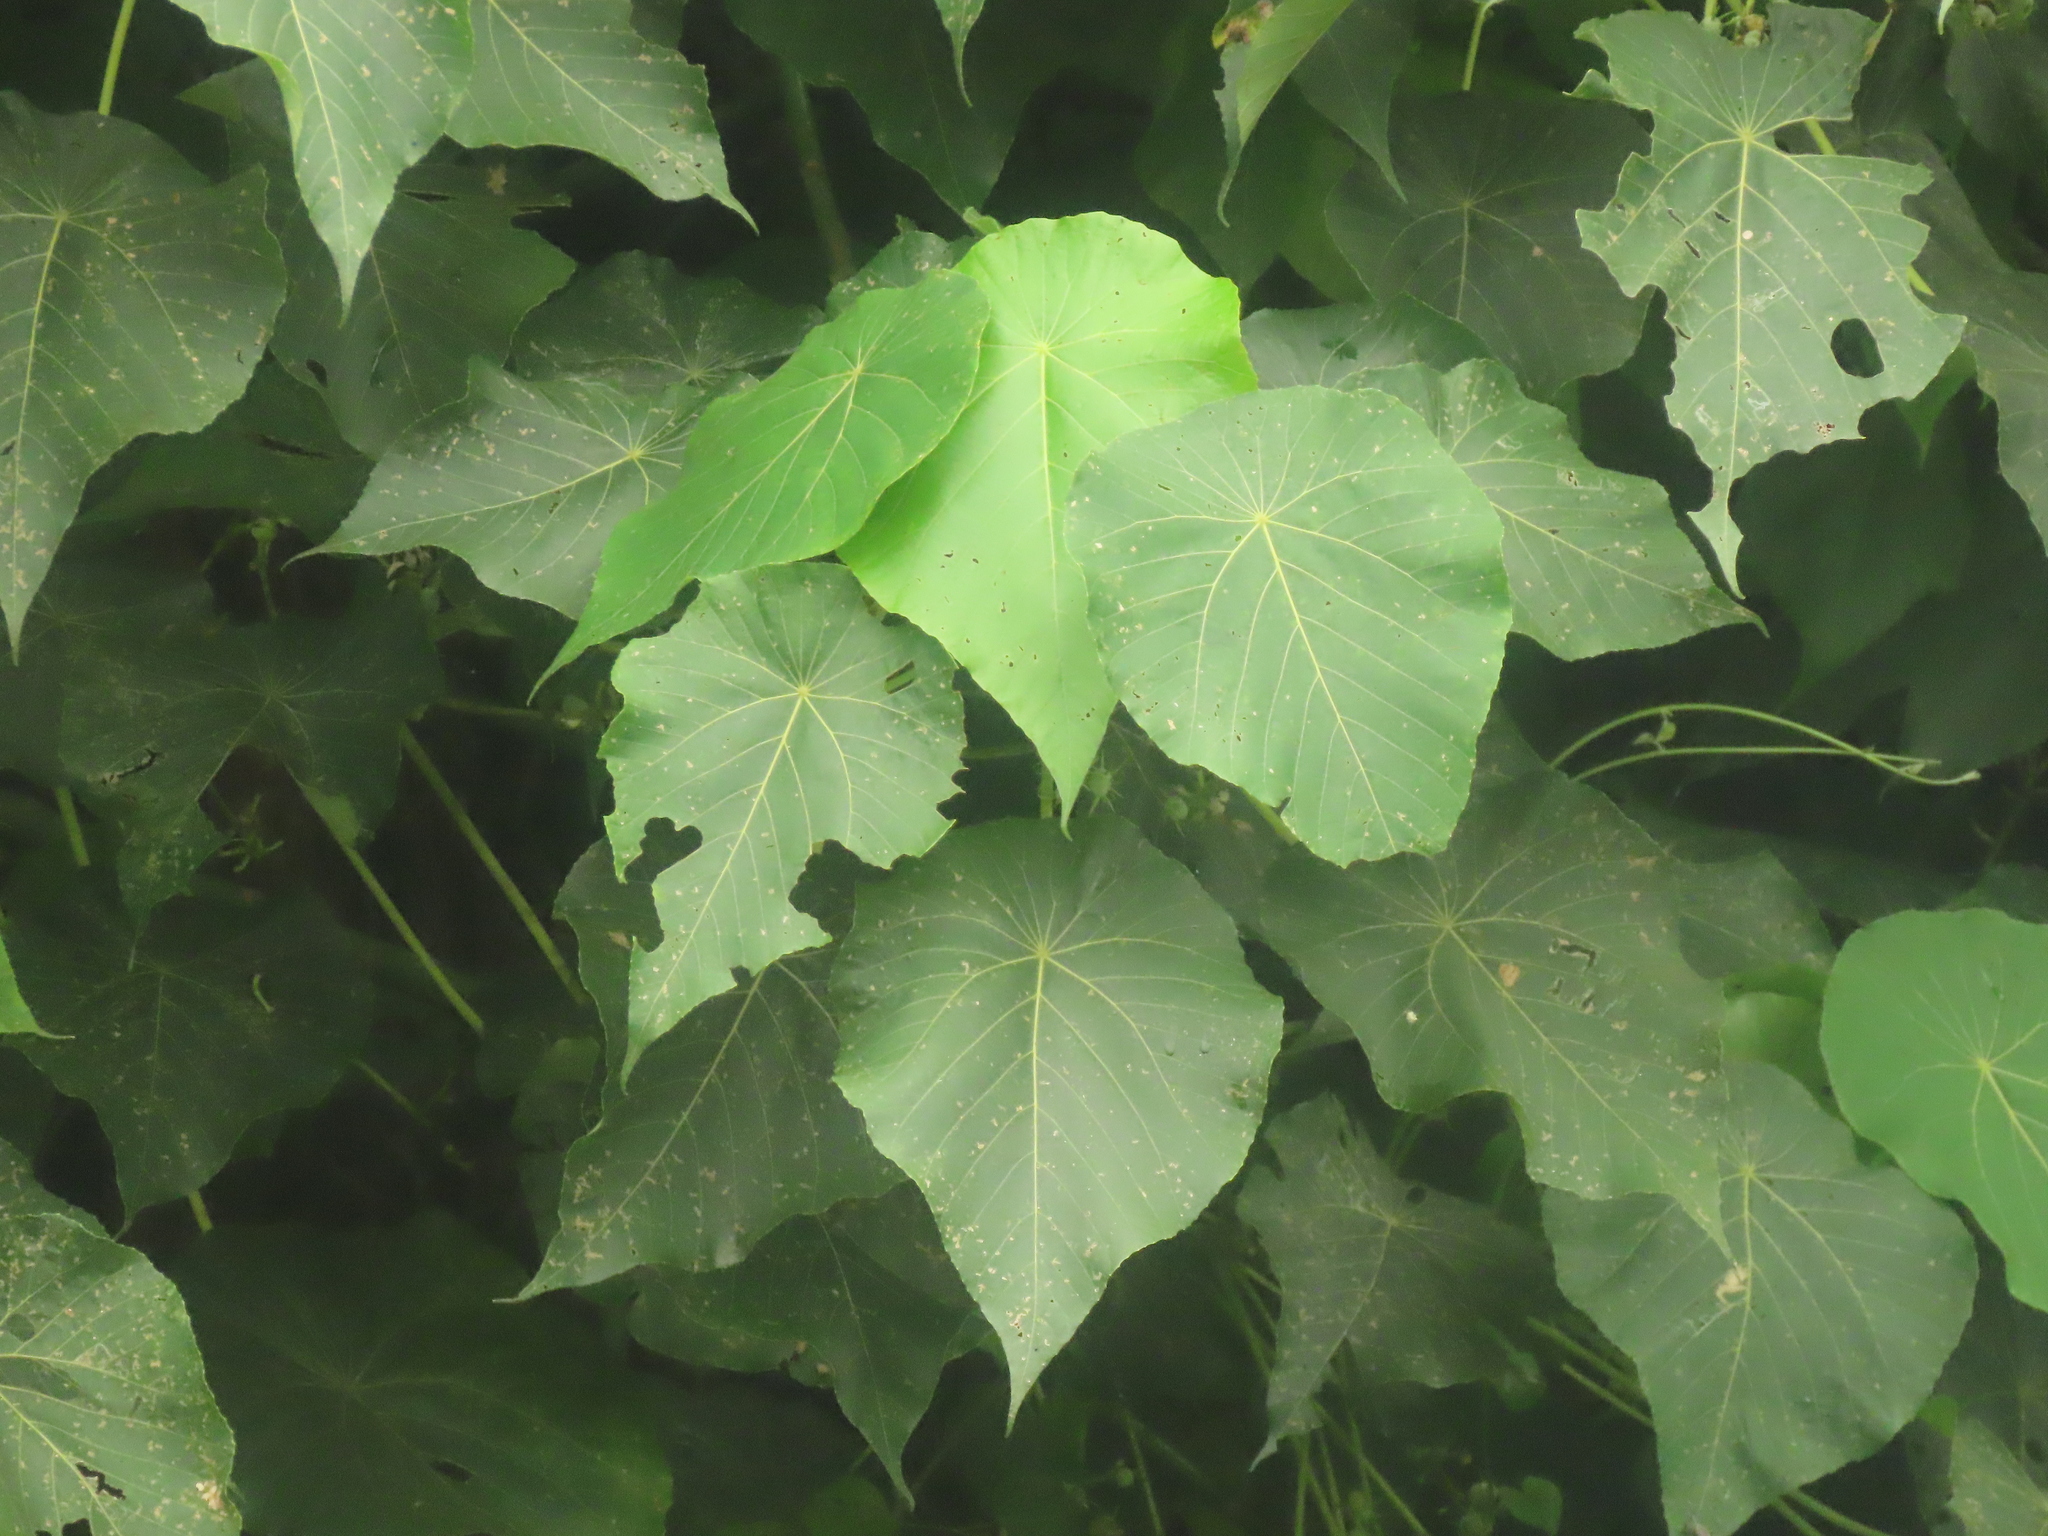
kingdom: Plantae
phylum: Tracheophyta
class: Magnoliopsida
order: Malpighiales
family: Euphorbiaceae
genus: Macaranga
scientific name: Macaranga tanarius
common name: Parasol leaf tree
